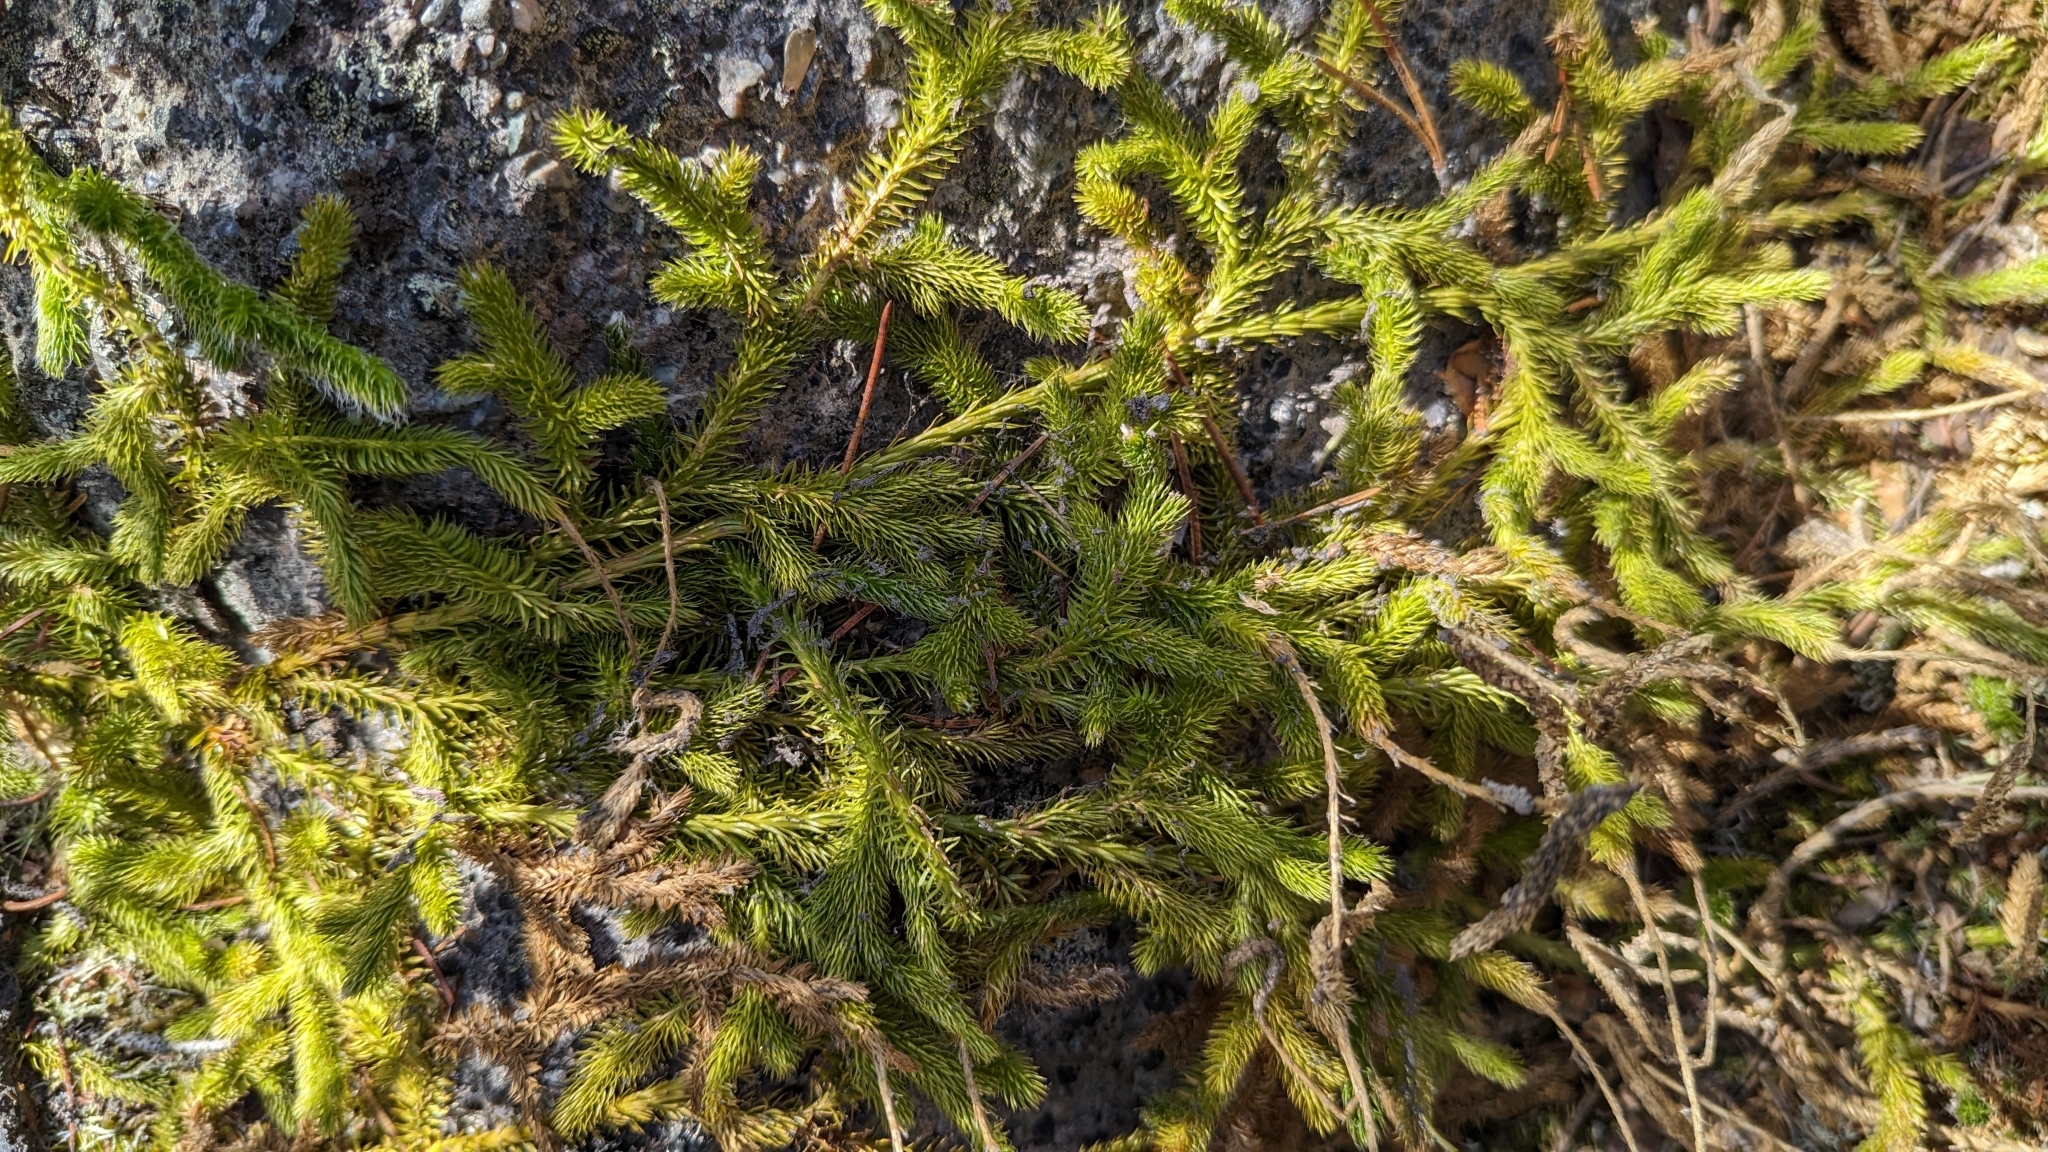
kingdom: Plantae
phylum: Tracheophyta
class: Lycopodiopsida
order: Lycopodiales
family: Lycopodiaceae
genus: Lycopodium
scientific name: Lycopodium clavatum
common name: Stag's-horn clubmoss
